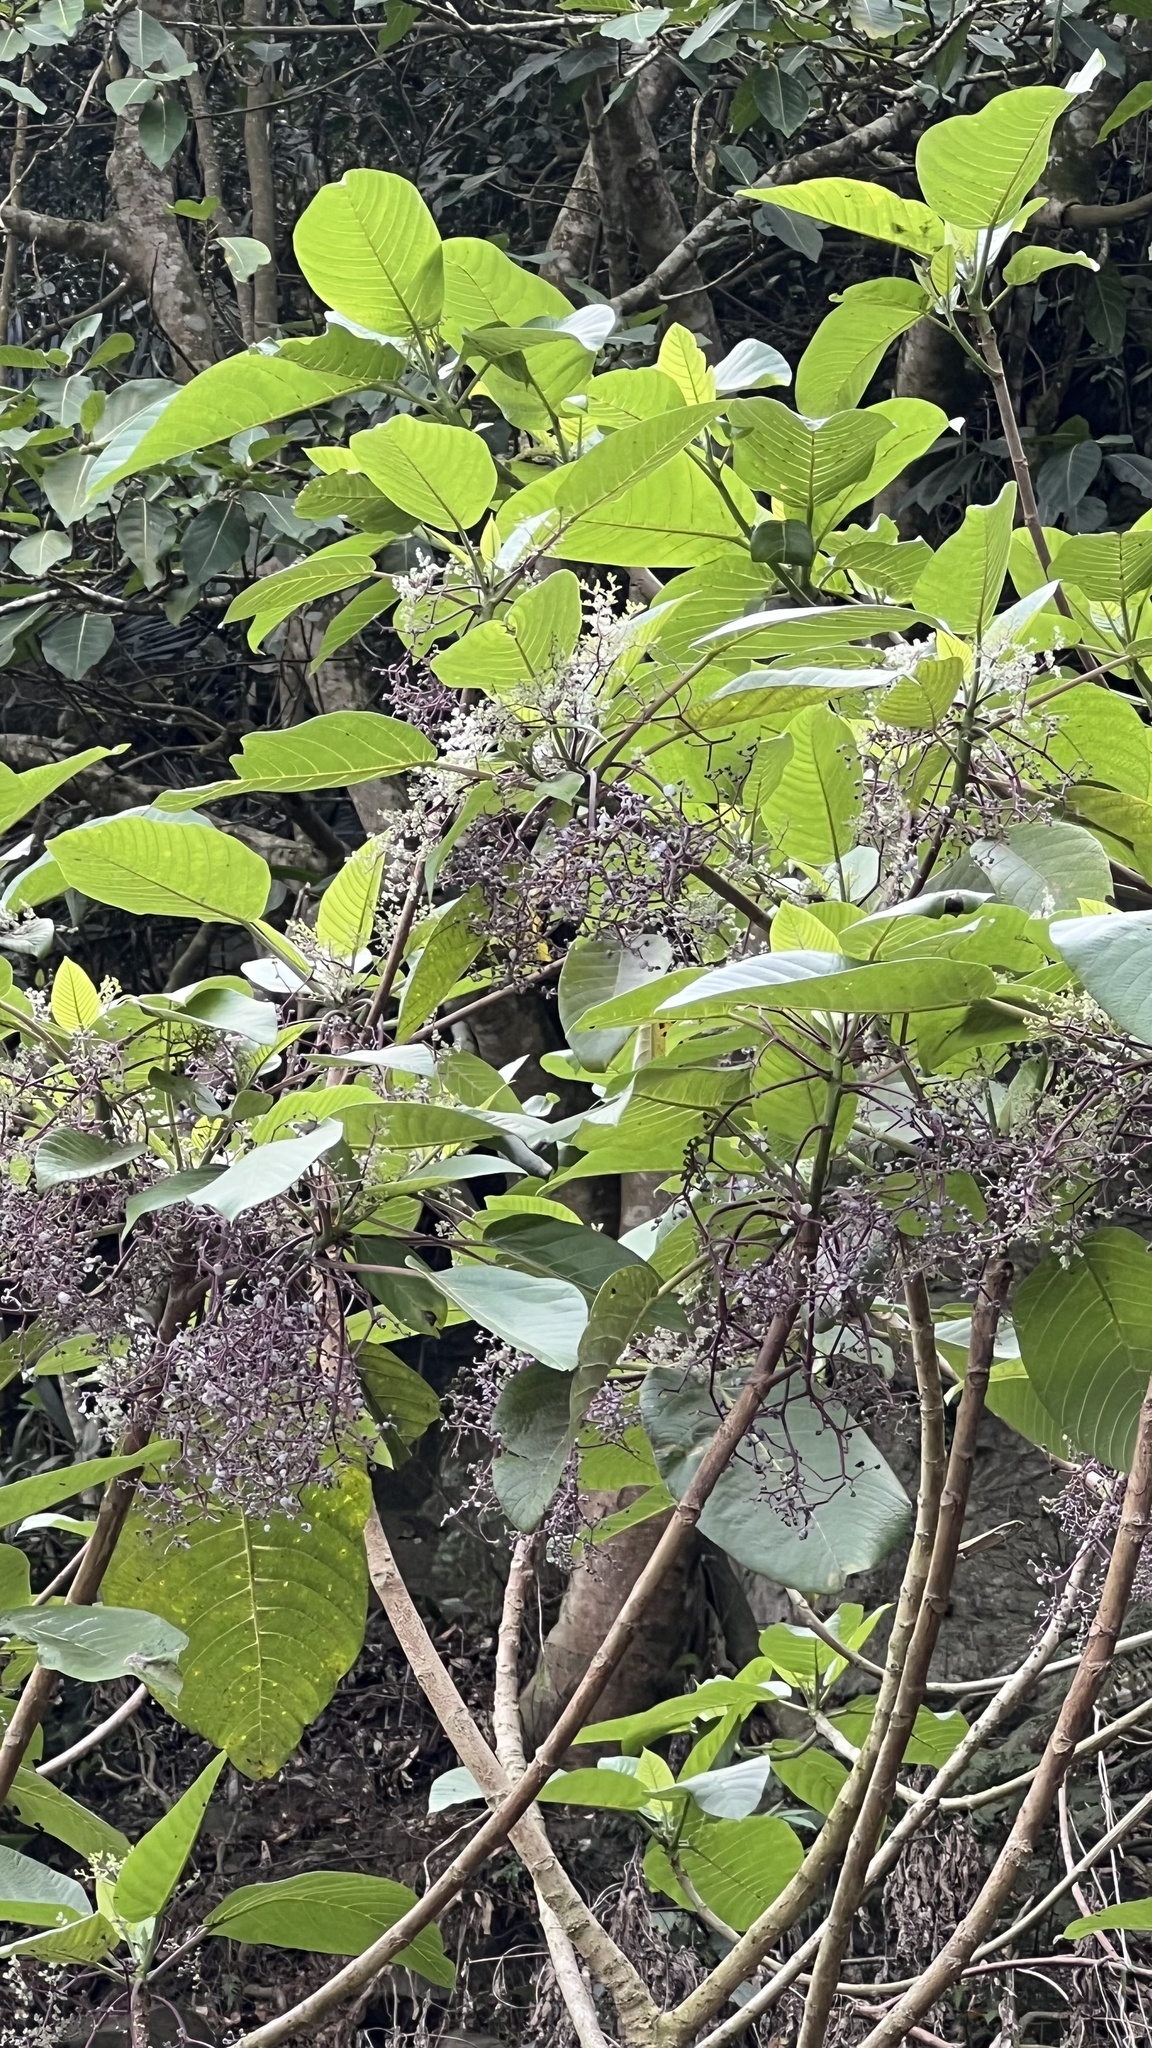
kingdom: Plantae
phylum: Tracheophyta
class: Magnoliopsida
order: Rosales
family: Urticaceae
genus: Dendrocnide
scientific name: Dendrocnide meyeniana
